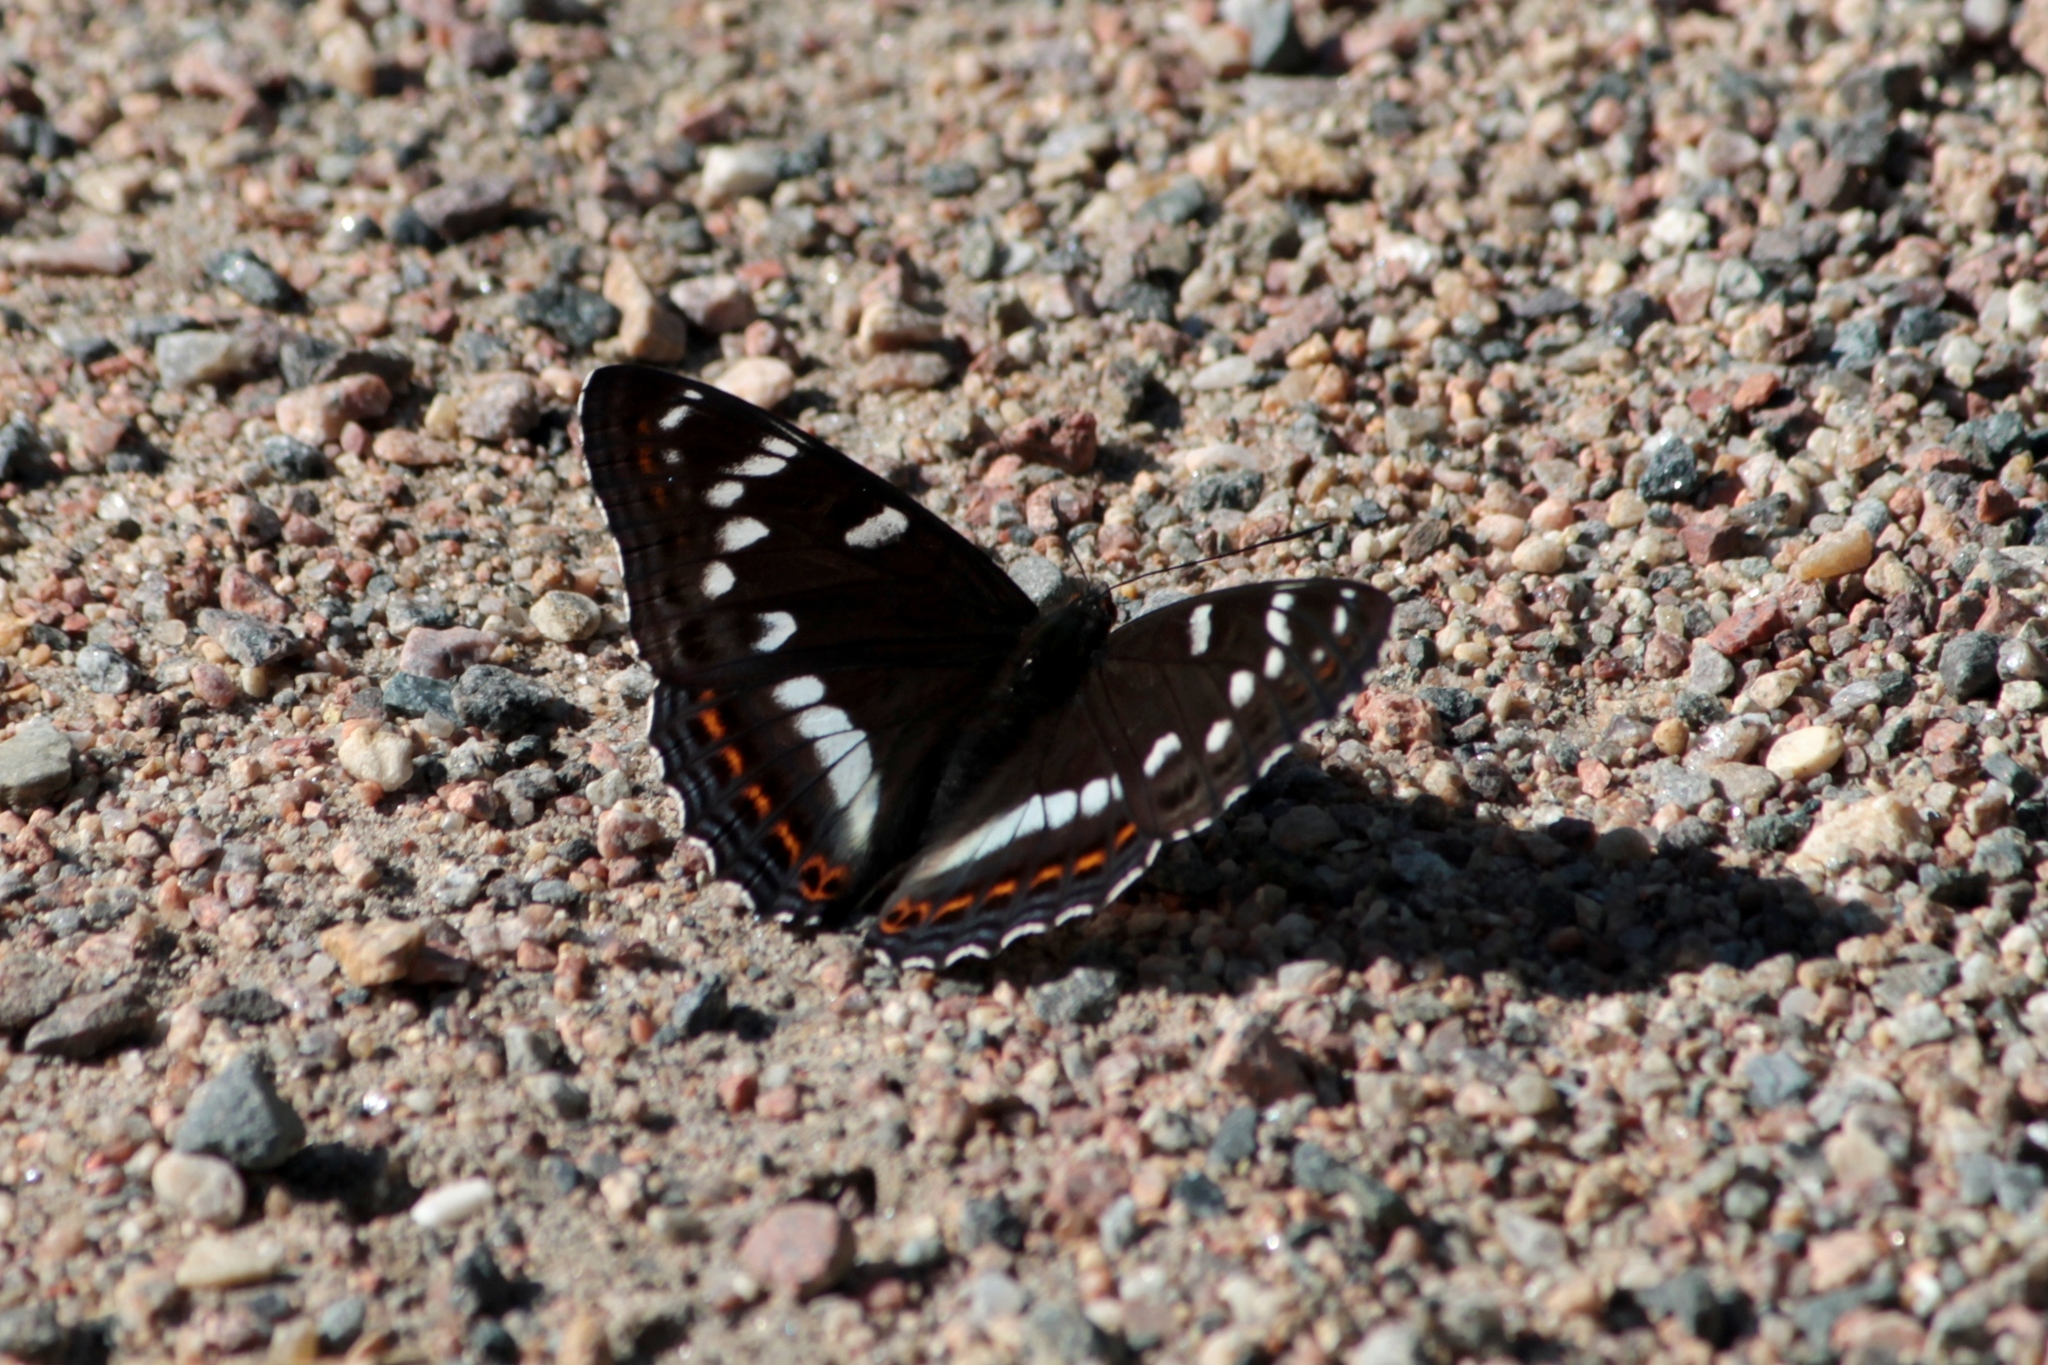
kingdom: Animalia
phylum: Arthropoda
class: Insecta
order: Lepidoptera
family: Nymphalidae
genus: Limenitis
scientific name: Limenitis populi
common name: Poplar admiral
